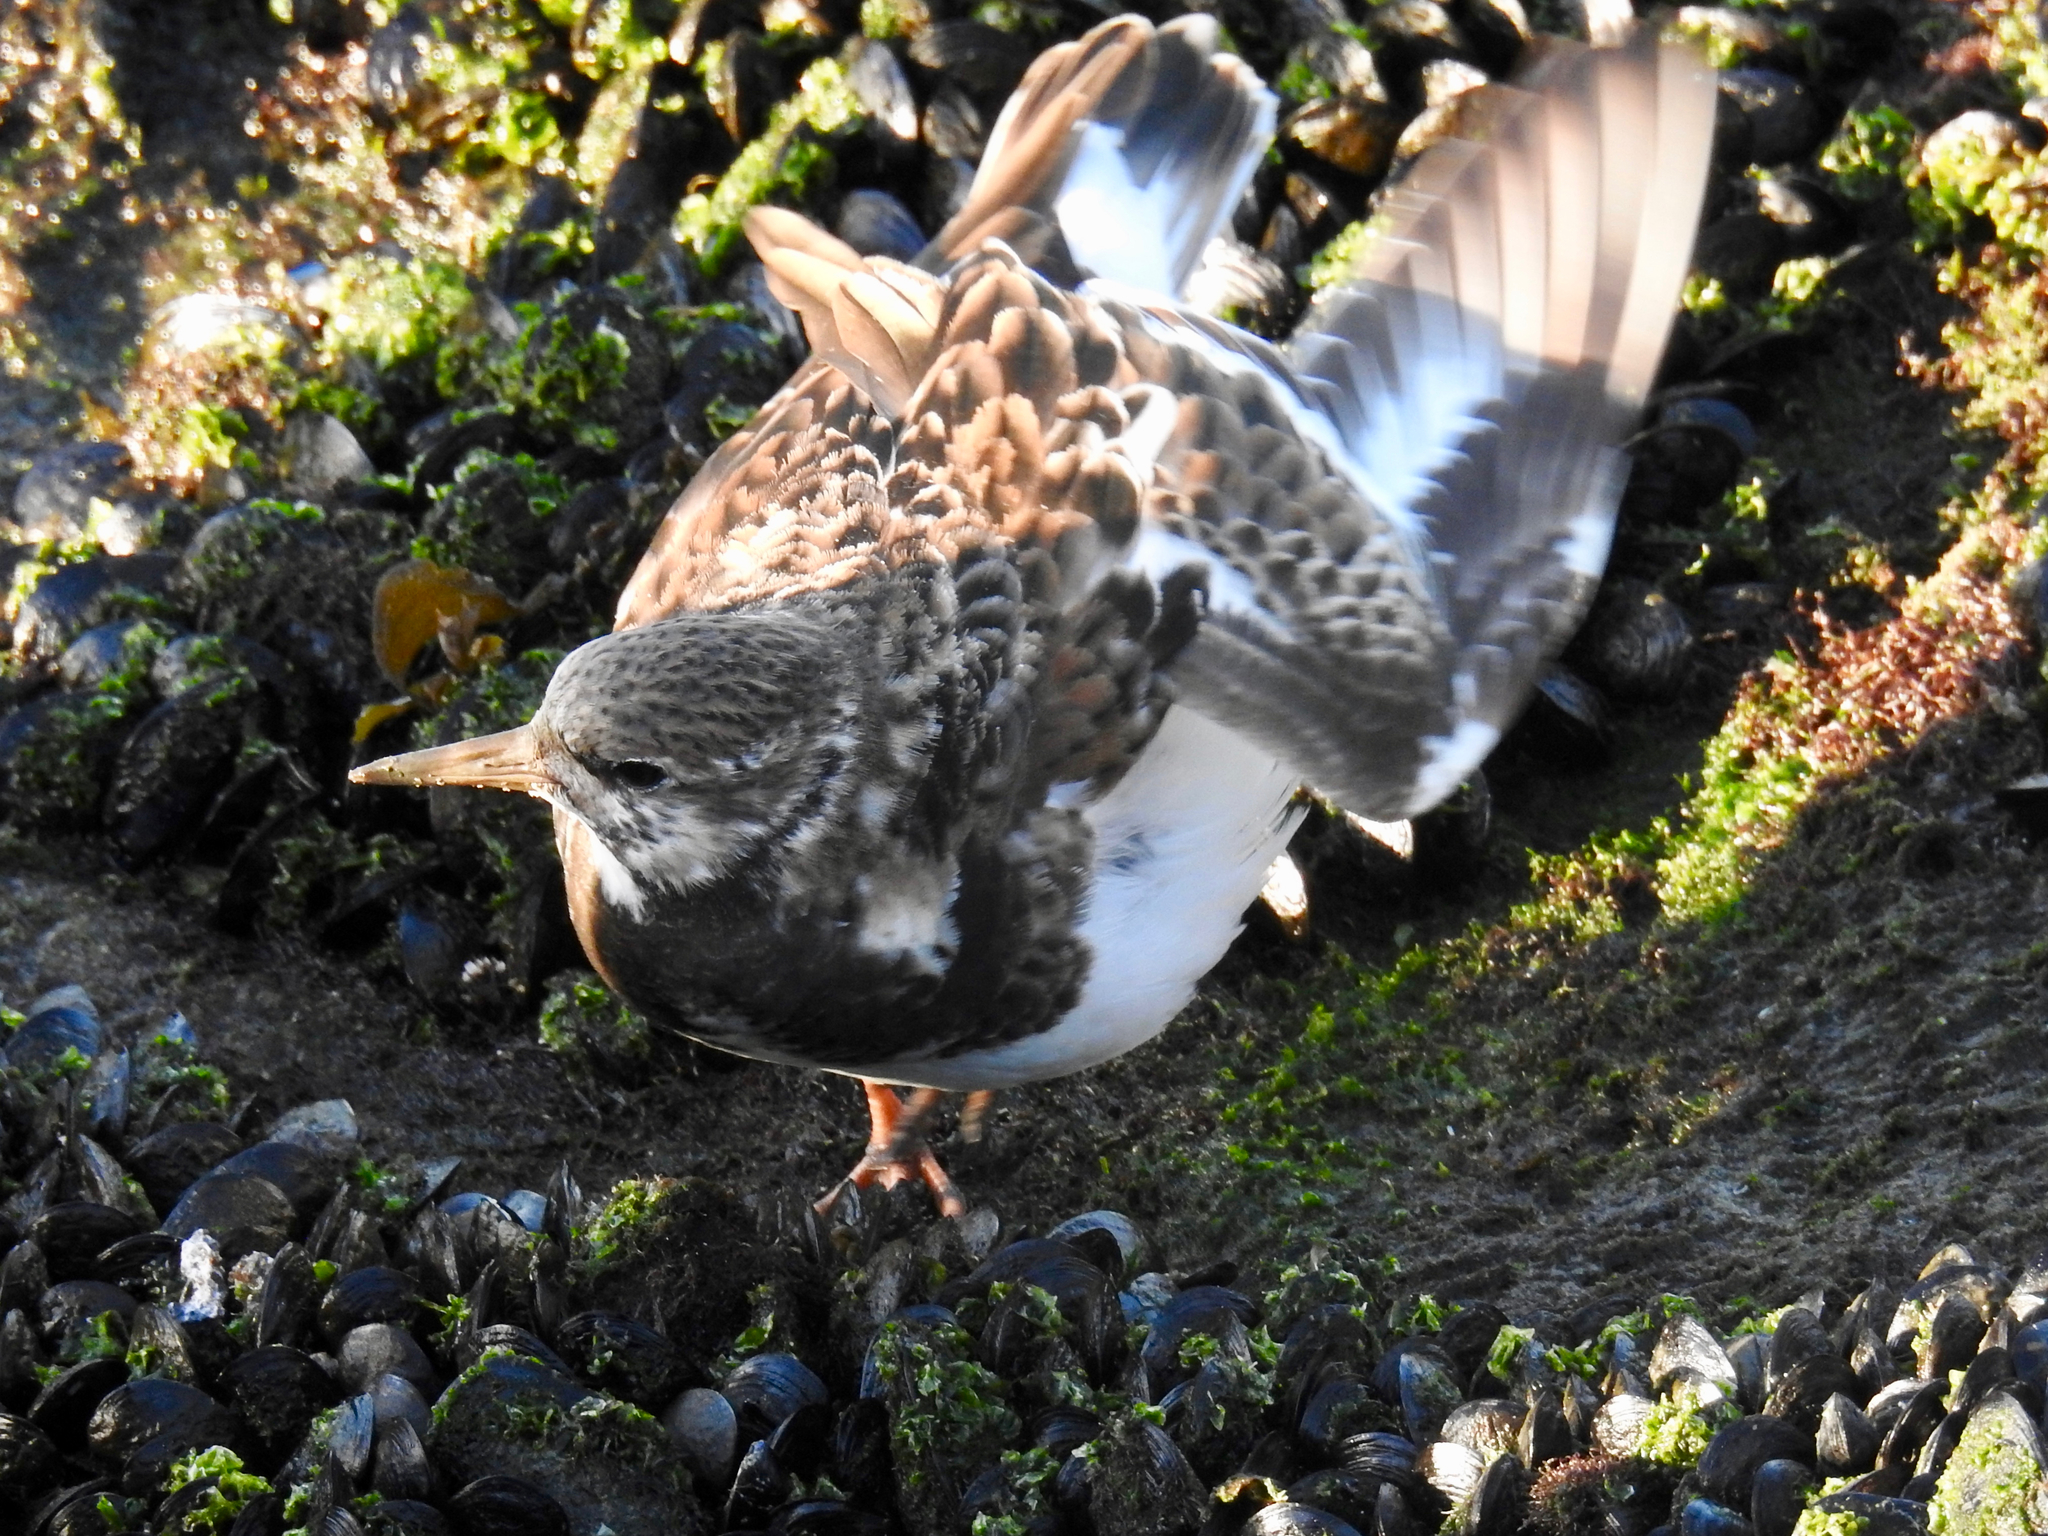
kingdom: Animalia
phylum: Chordata
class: Aves
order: Charadriiformes
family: Scolopacidae
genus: Arenaria
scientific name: Arenaria interpres
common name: Ruddy turnstone
